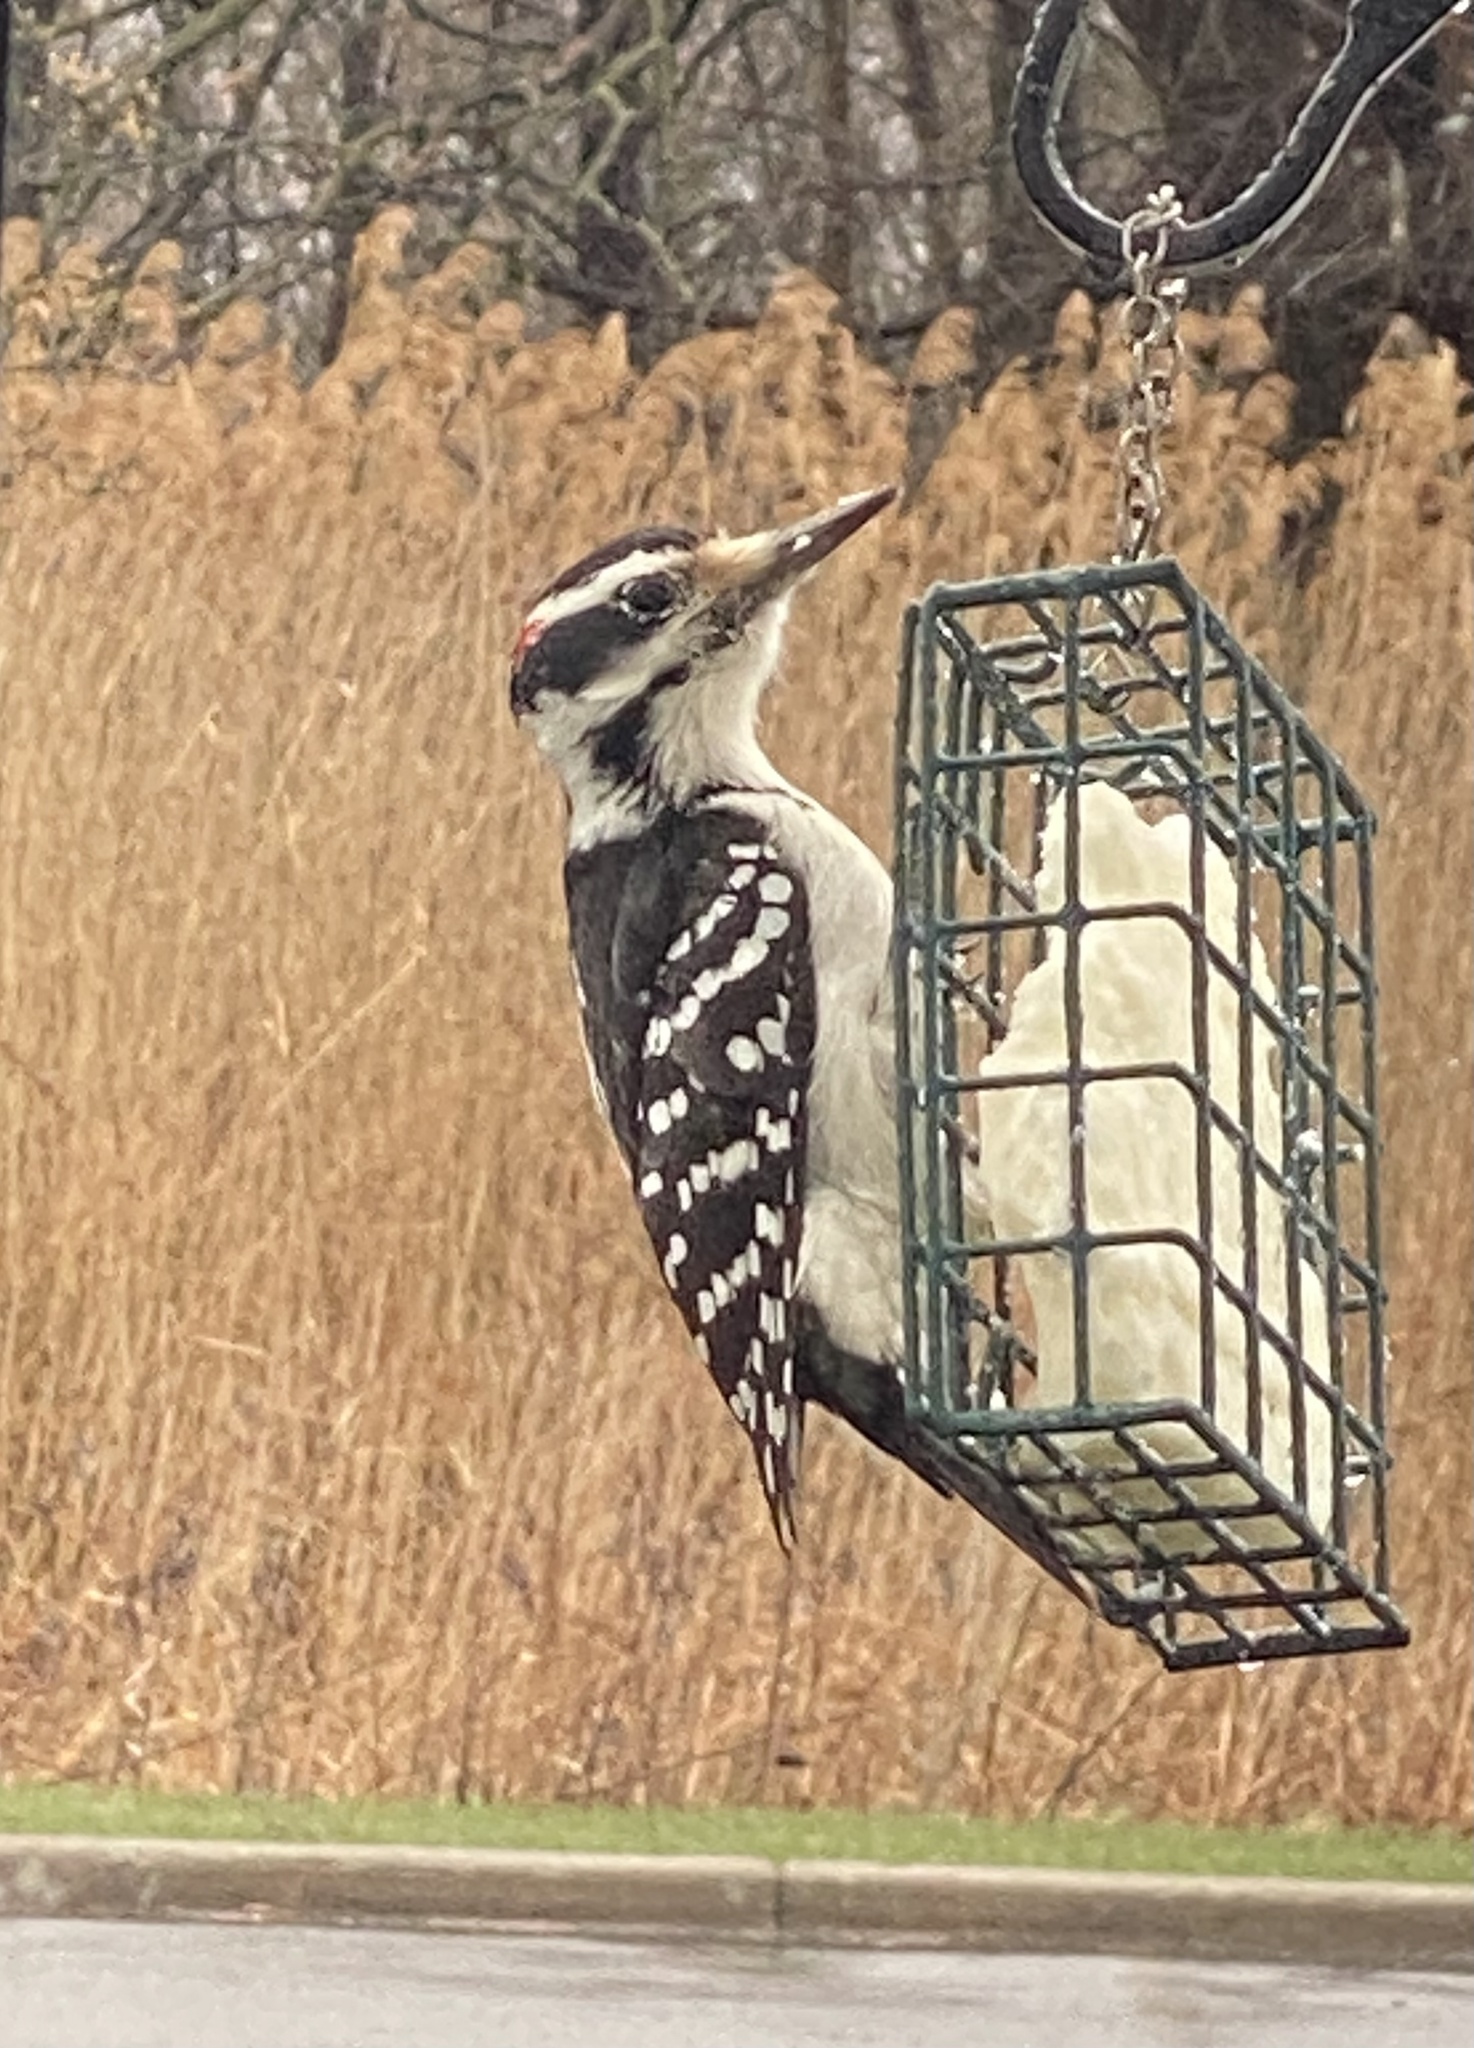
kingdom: Animalia
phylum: Chordata
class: Aves
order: Piciformes
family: Picidae
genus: Leuconotopicus
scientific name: Leuconotopicus villosus
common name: Hairy woodpecker
